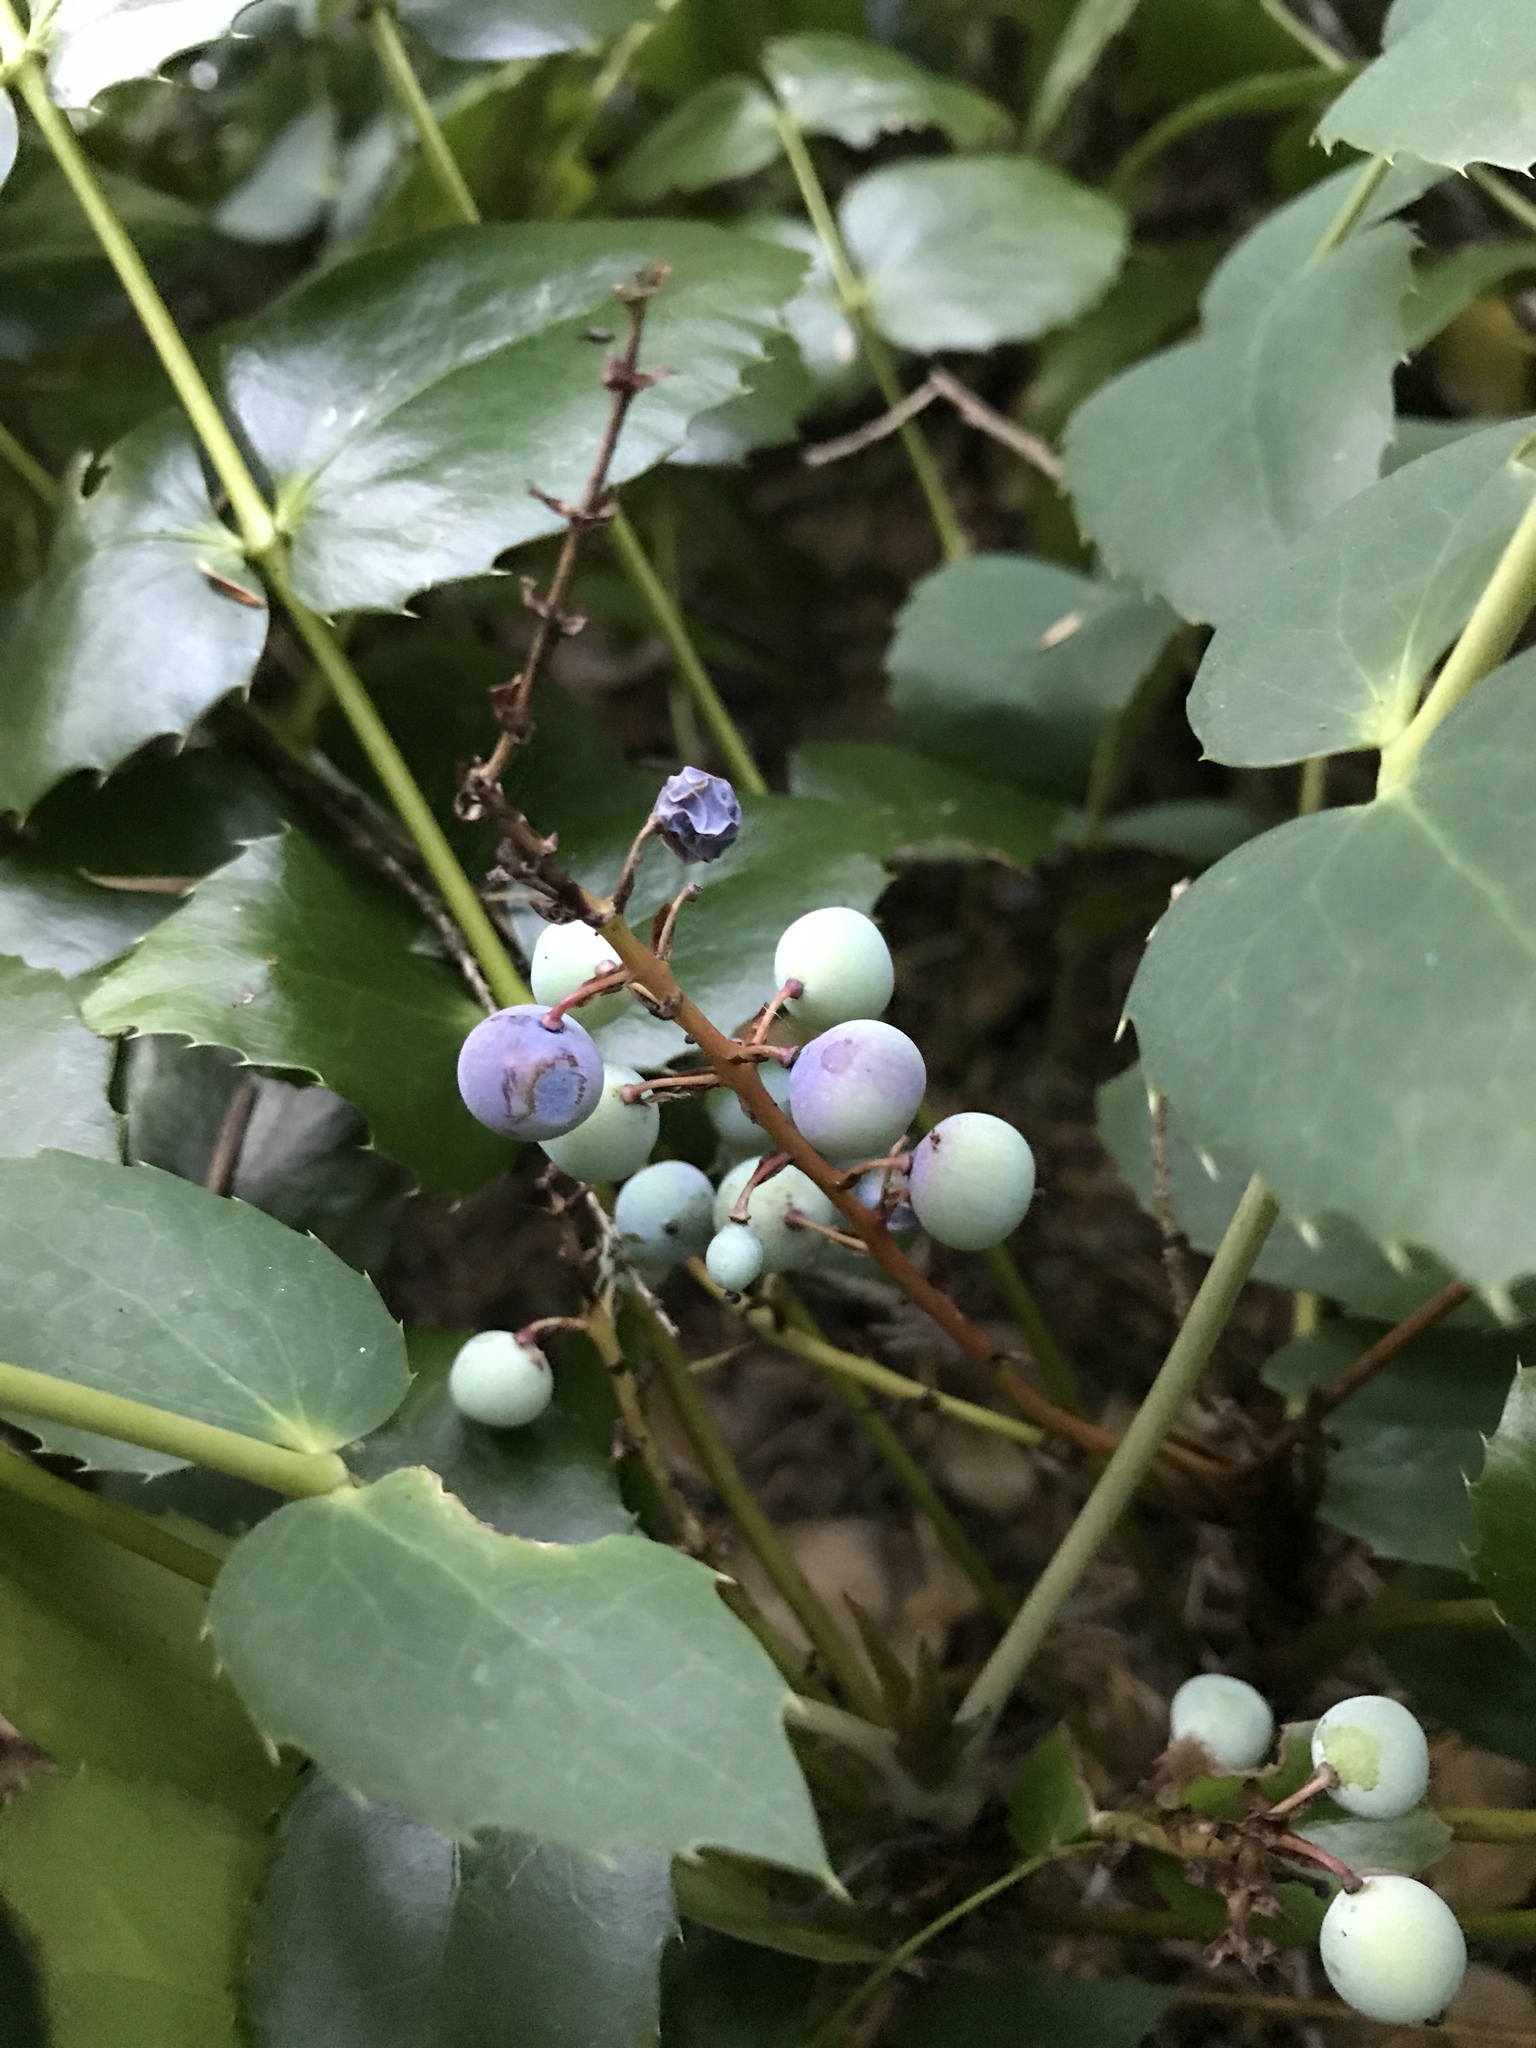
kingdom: Plantae
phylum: Tracheophyta
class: Magnoliopsida
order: Ranunculales
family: Berberidaceae
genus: Mahonia
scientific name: Mahonia nervosa
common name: Cascade oregon-grape
